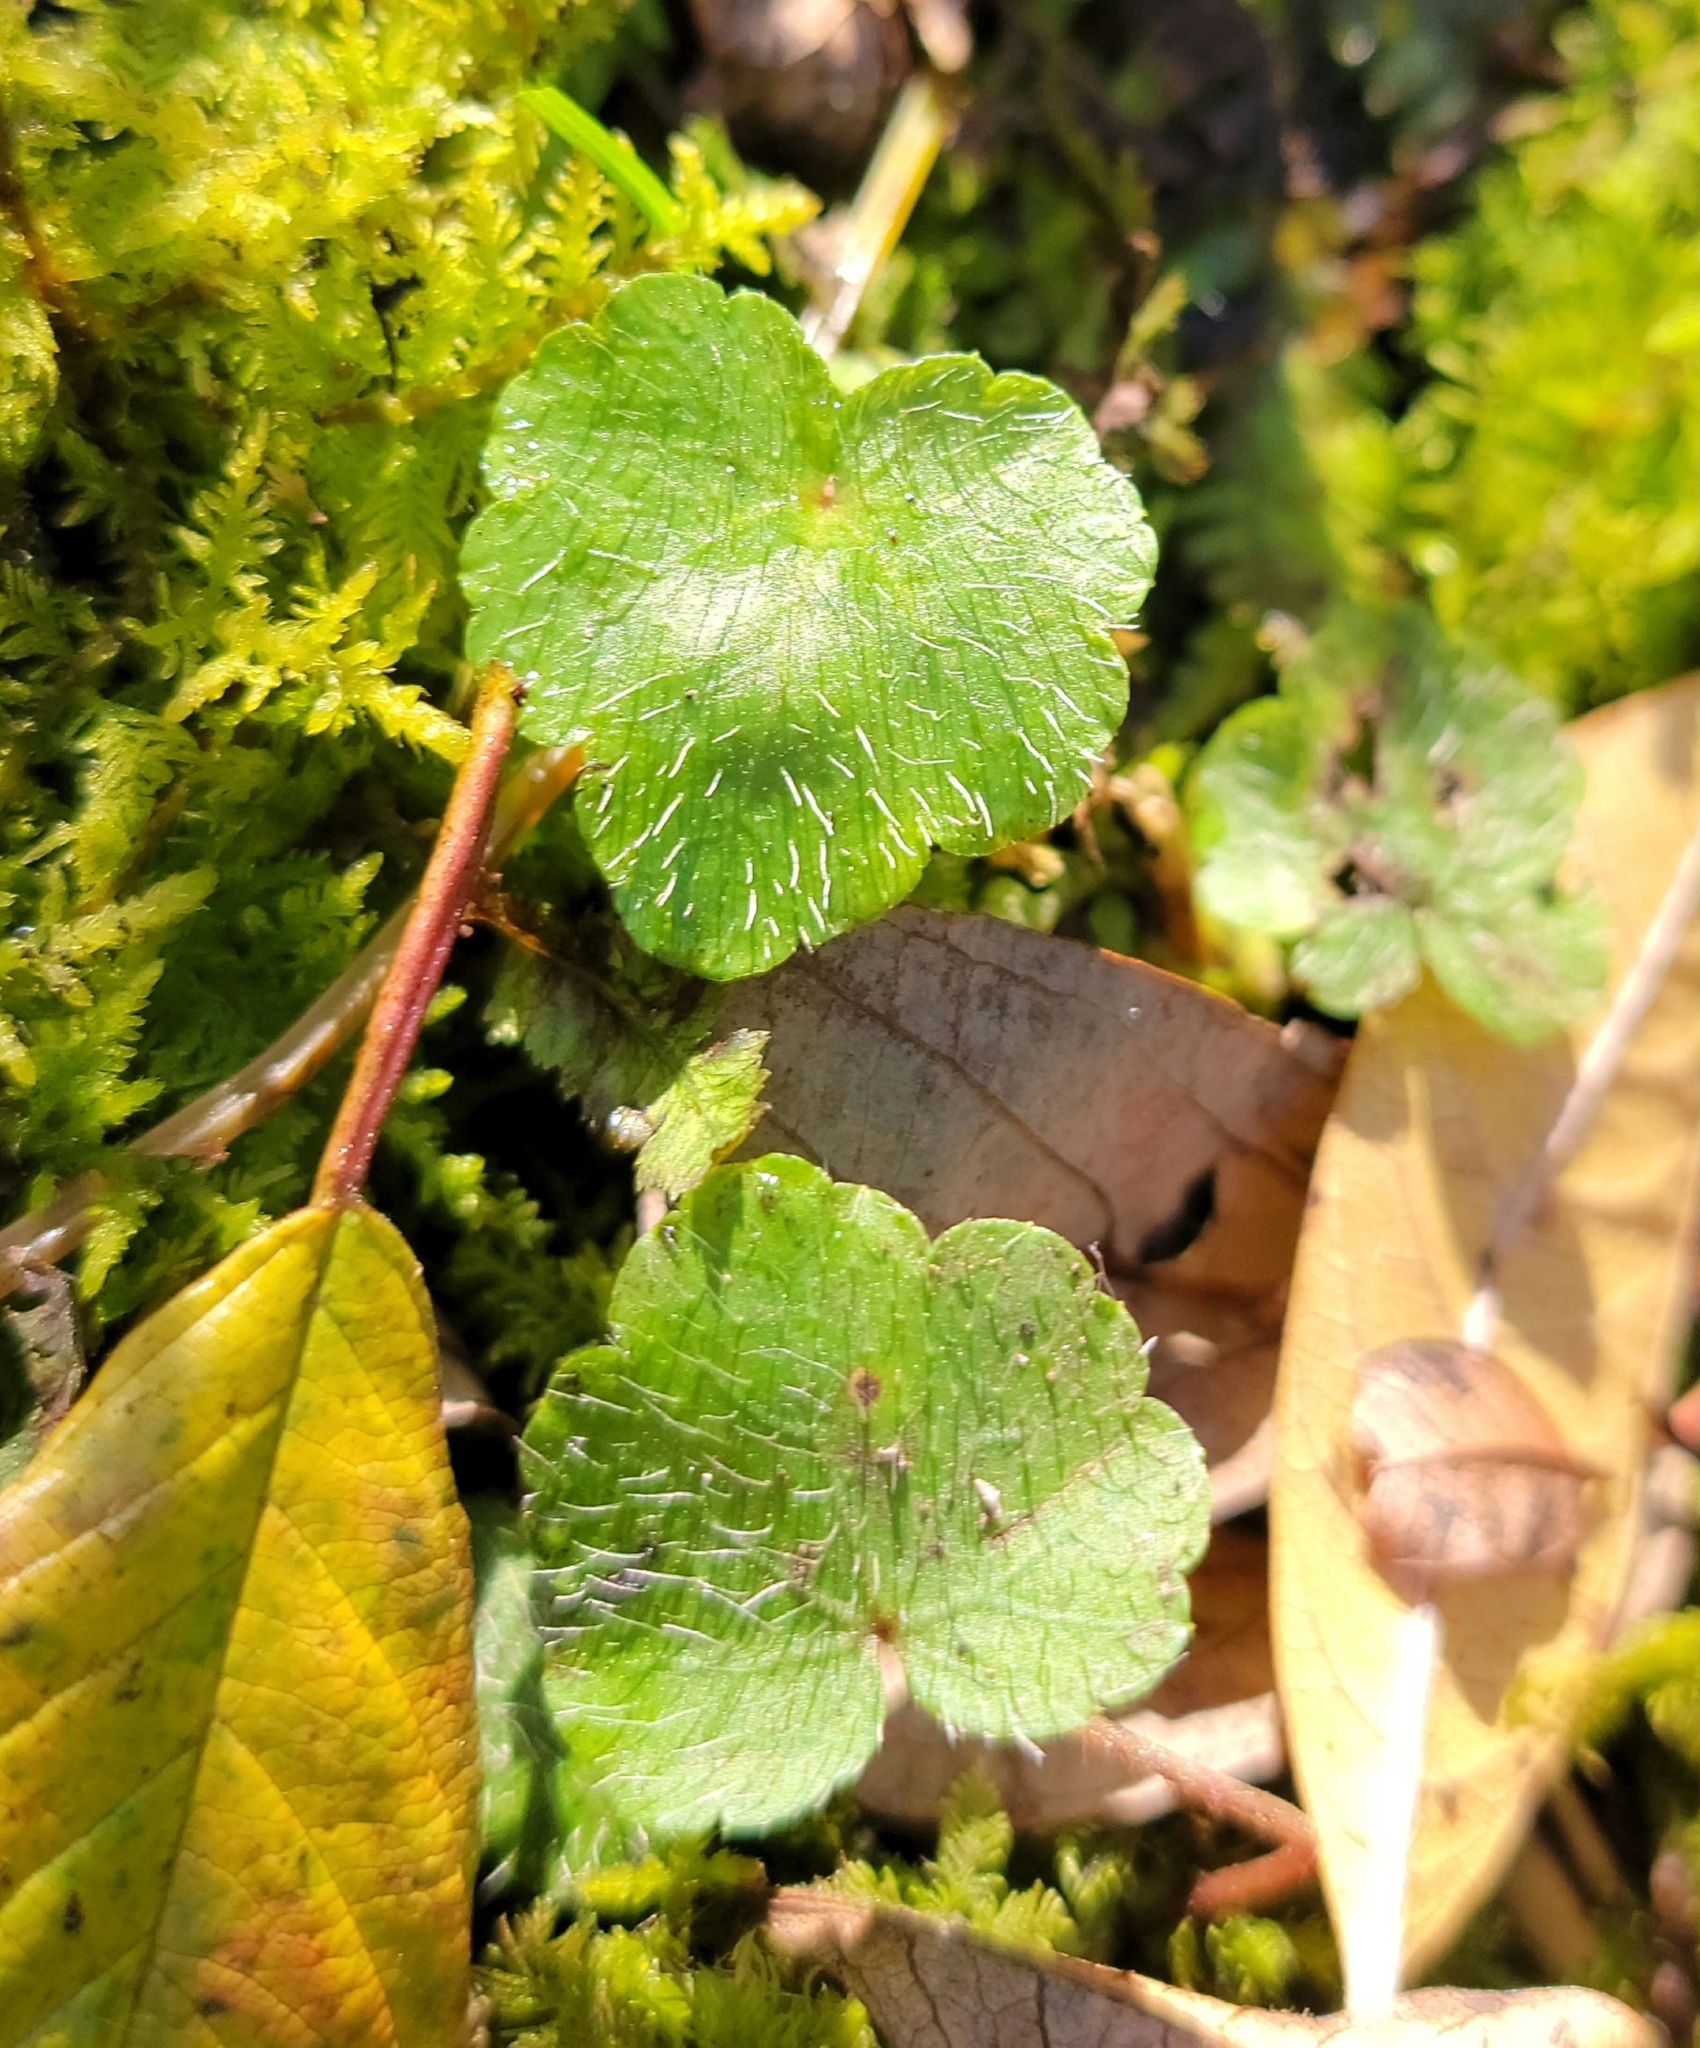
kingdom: Plantae
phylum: Tracheophyta
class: Magnoliopsida
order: Saxifragales
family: Saxifragaceae
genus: Mitella
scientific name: Mitella nuda
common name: Bare-stemmed bishop's-cap
